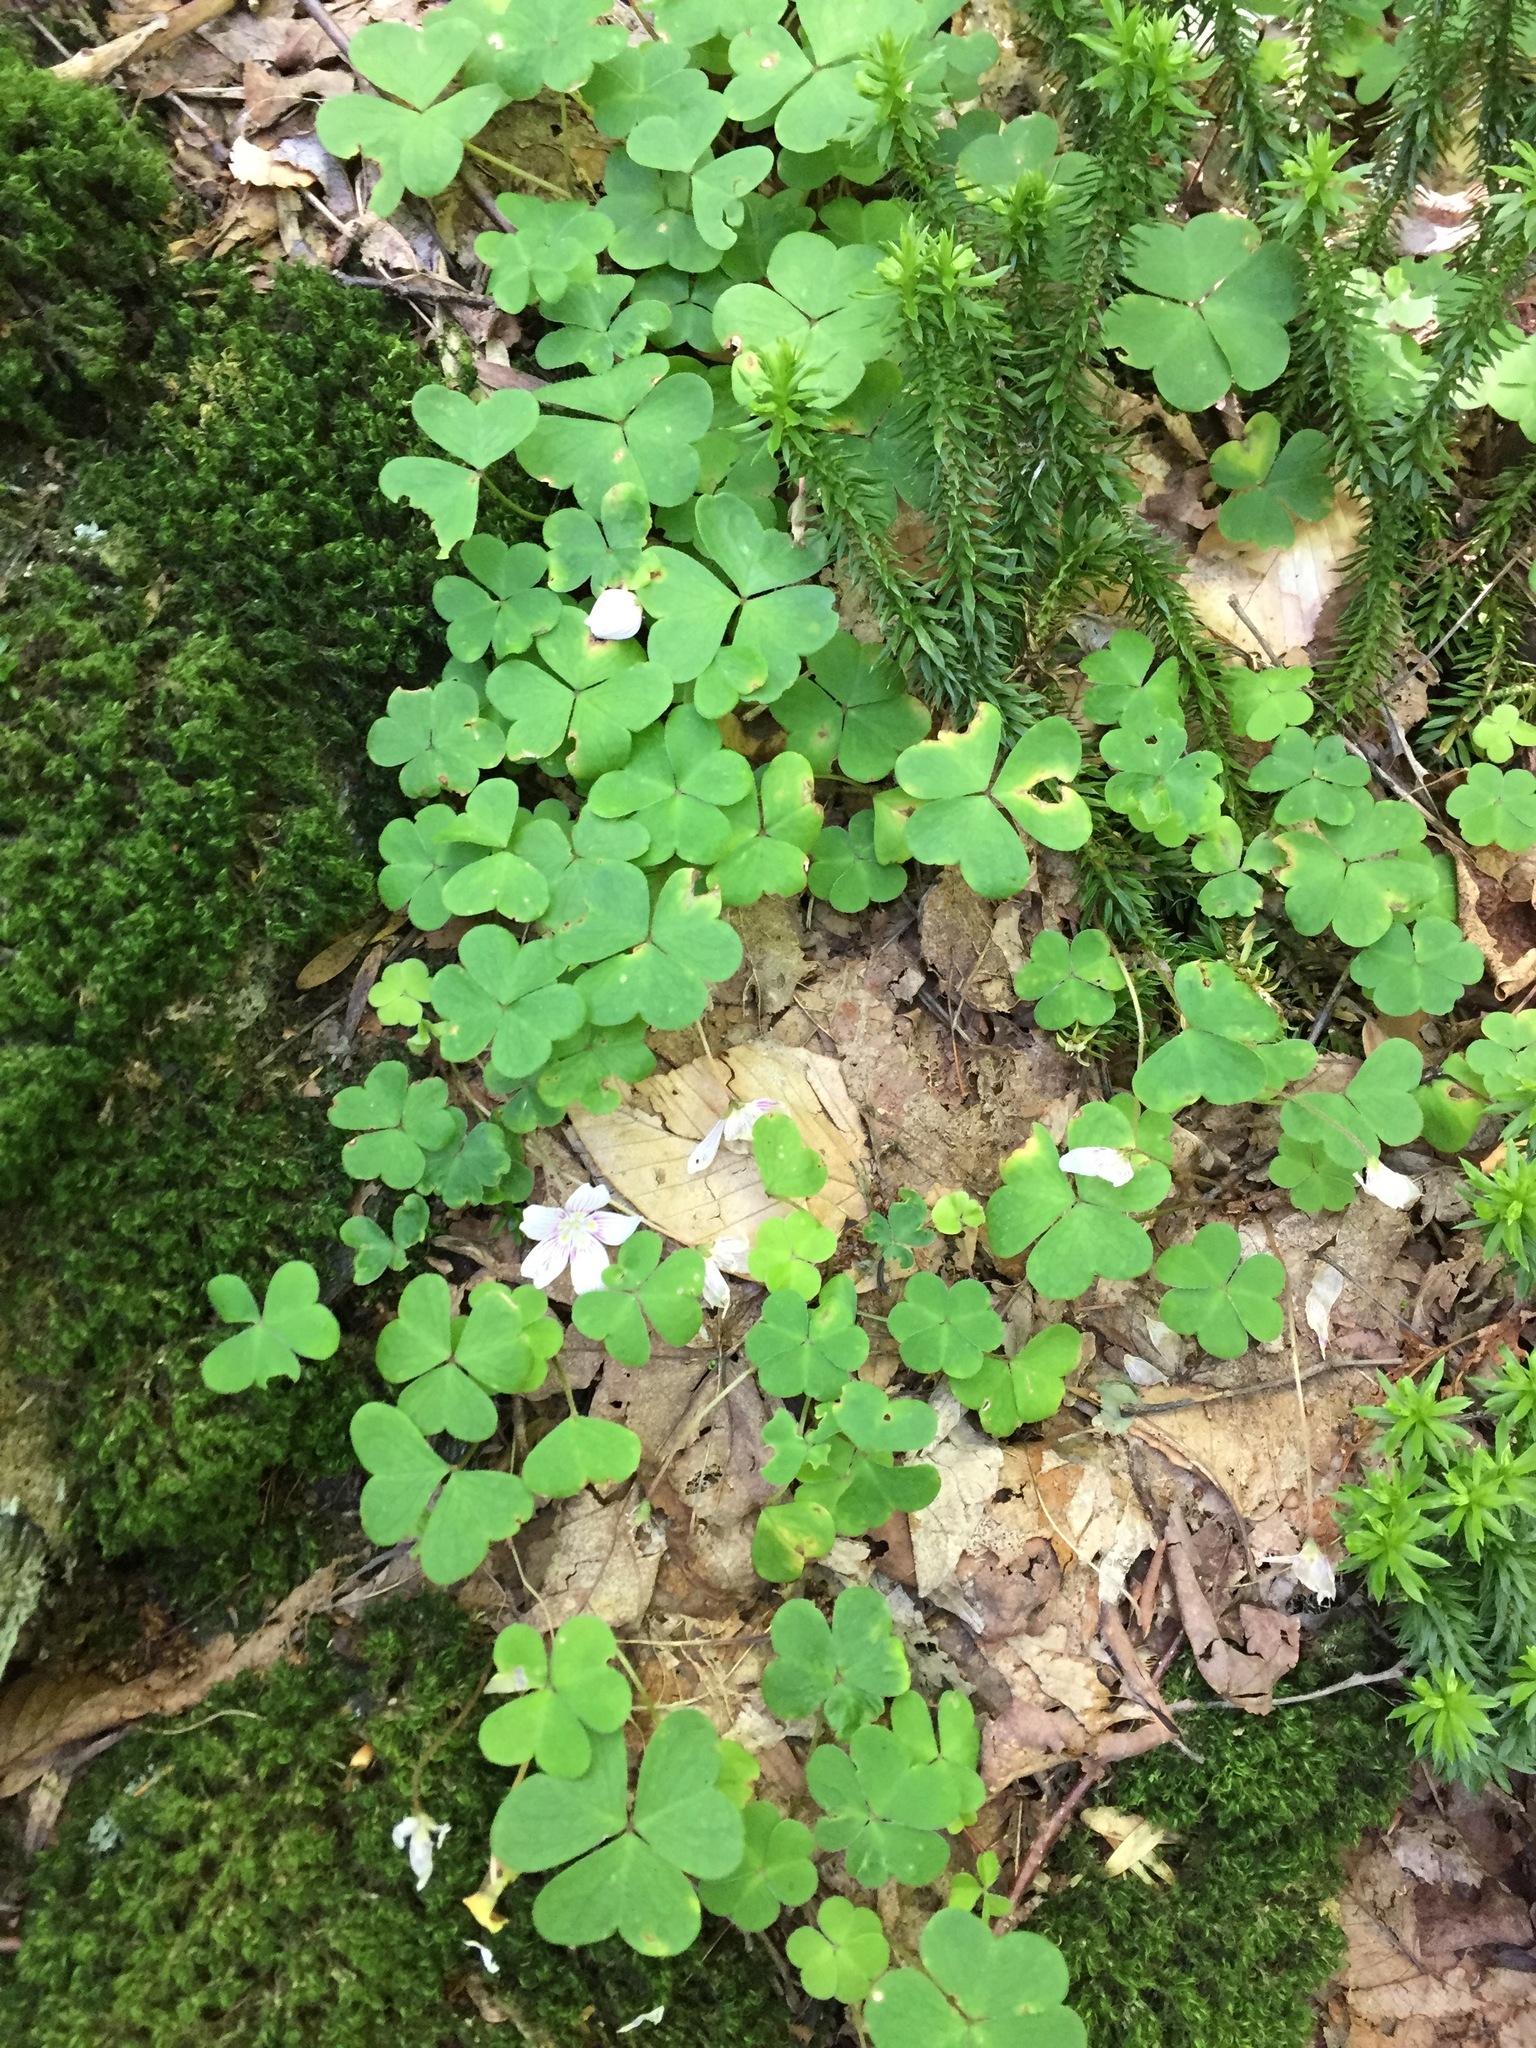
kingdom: Plantae
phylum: Tracheophyta
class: Magnoliopsida
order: Oxalidales
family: Oxalidaceae
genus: Oxalis
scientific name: Oxalis montana
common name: American wood-sorrel
